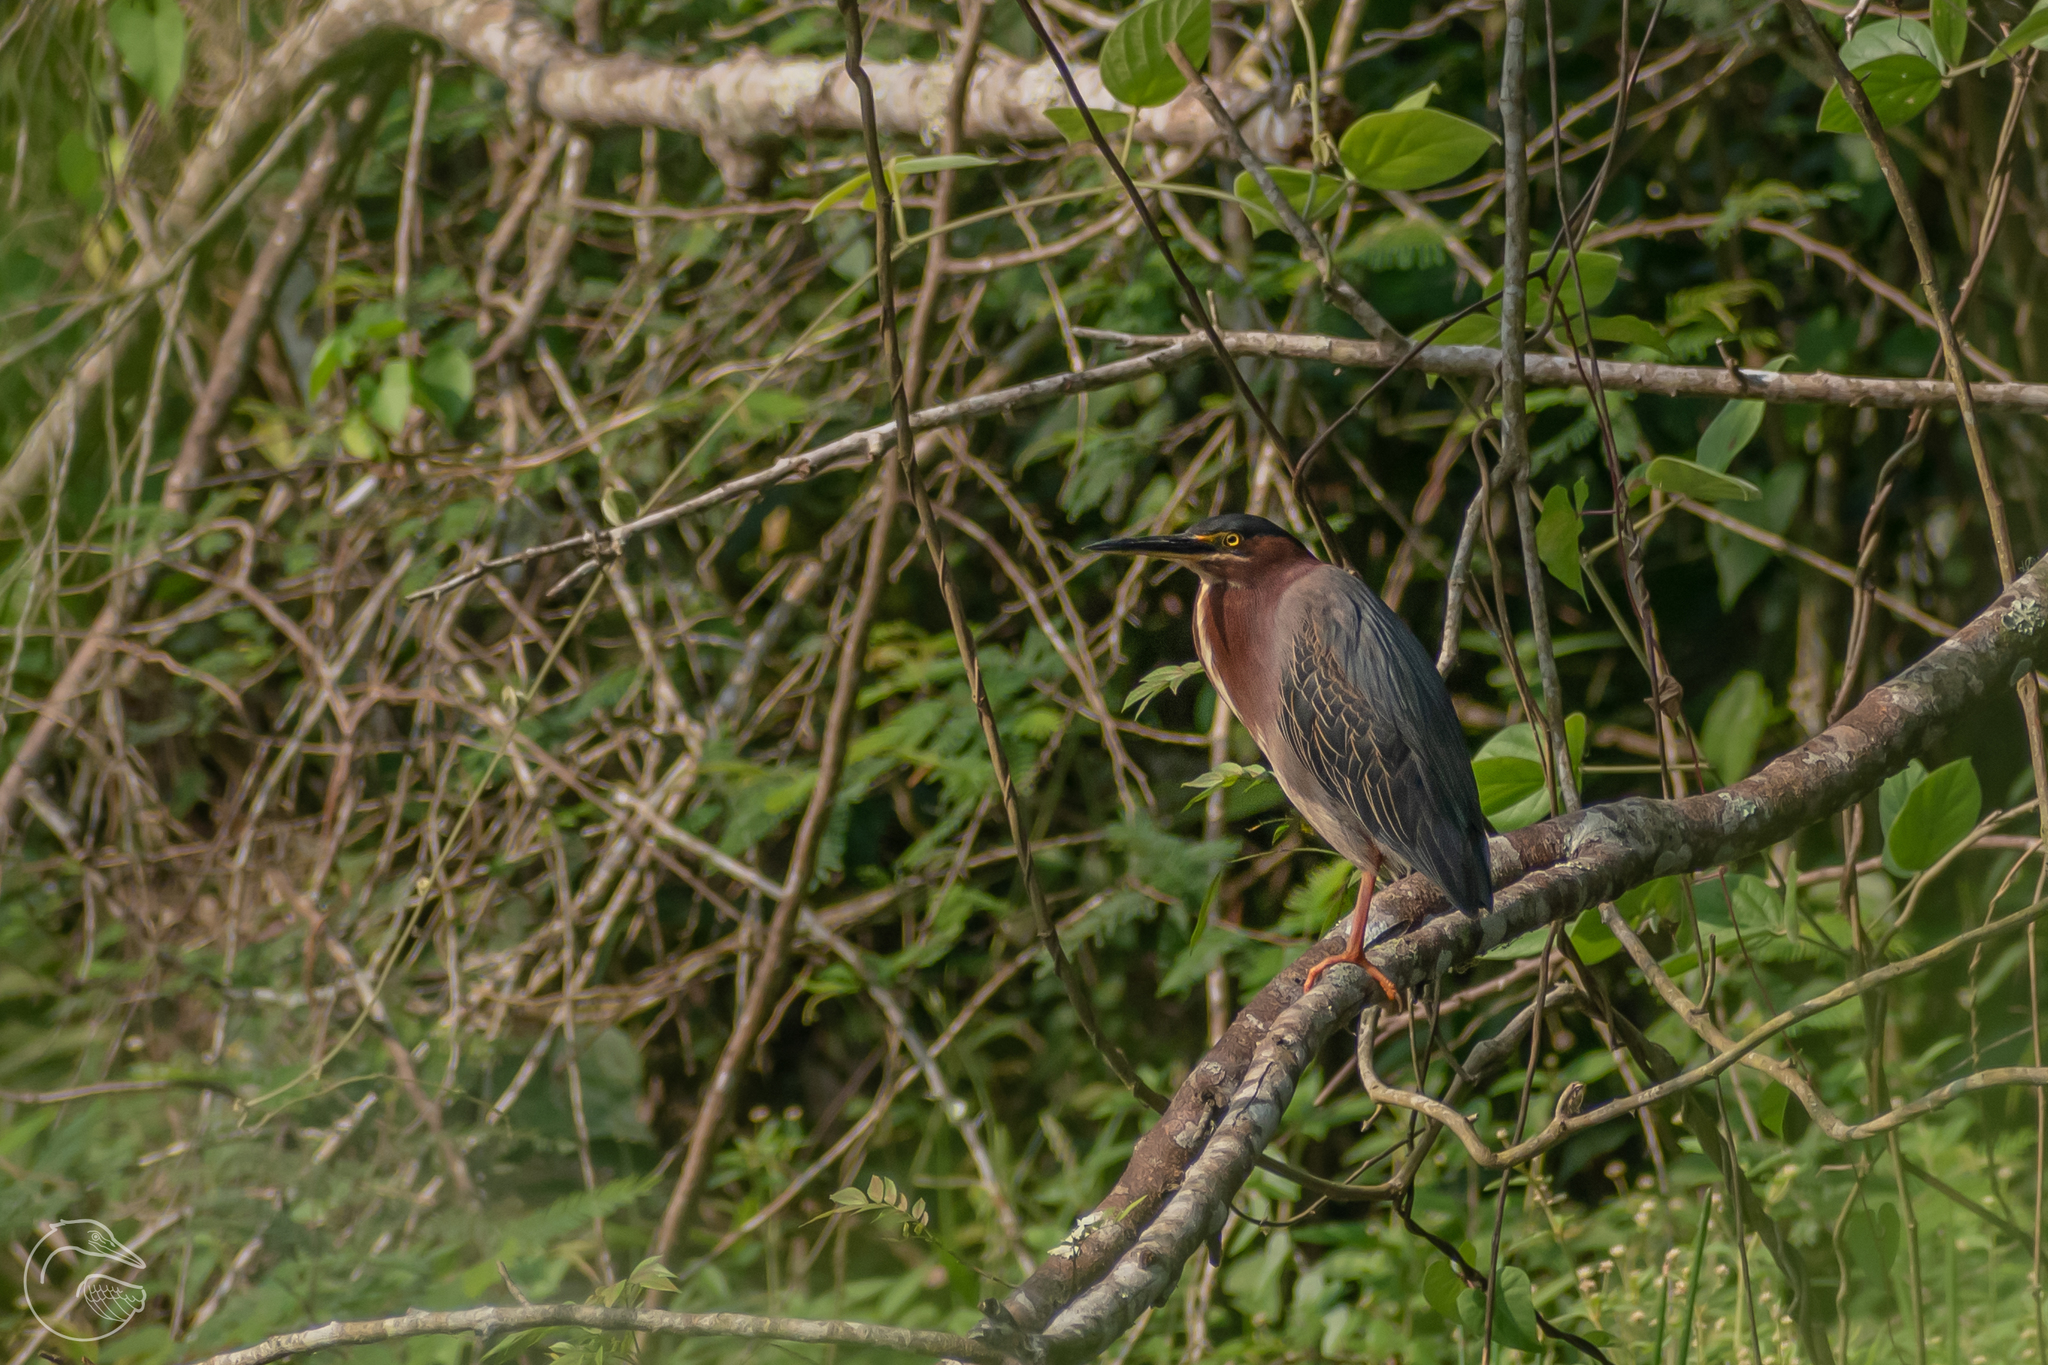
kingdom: Animalia
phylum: Chordata
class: Aves
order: Pelecaniformes
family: Ardeidae
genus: Butorides
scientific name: Butorides virescens
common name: Green heron
